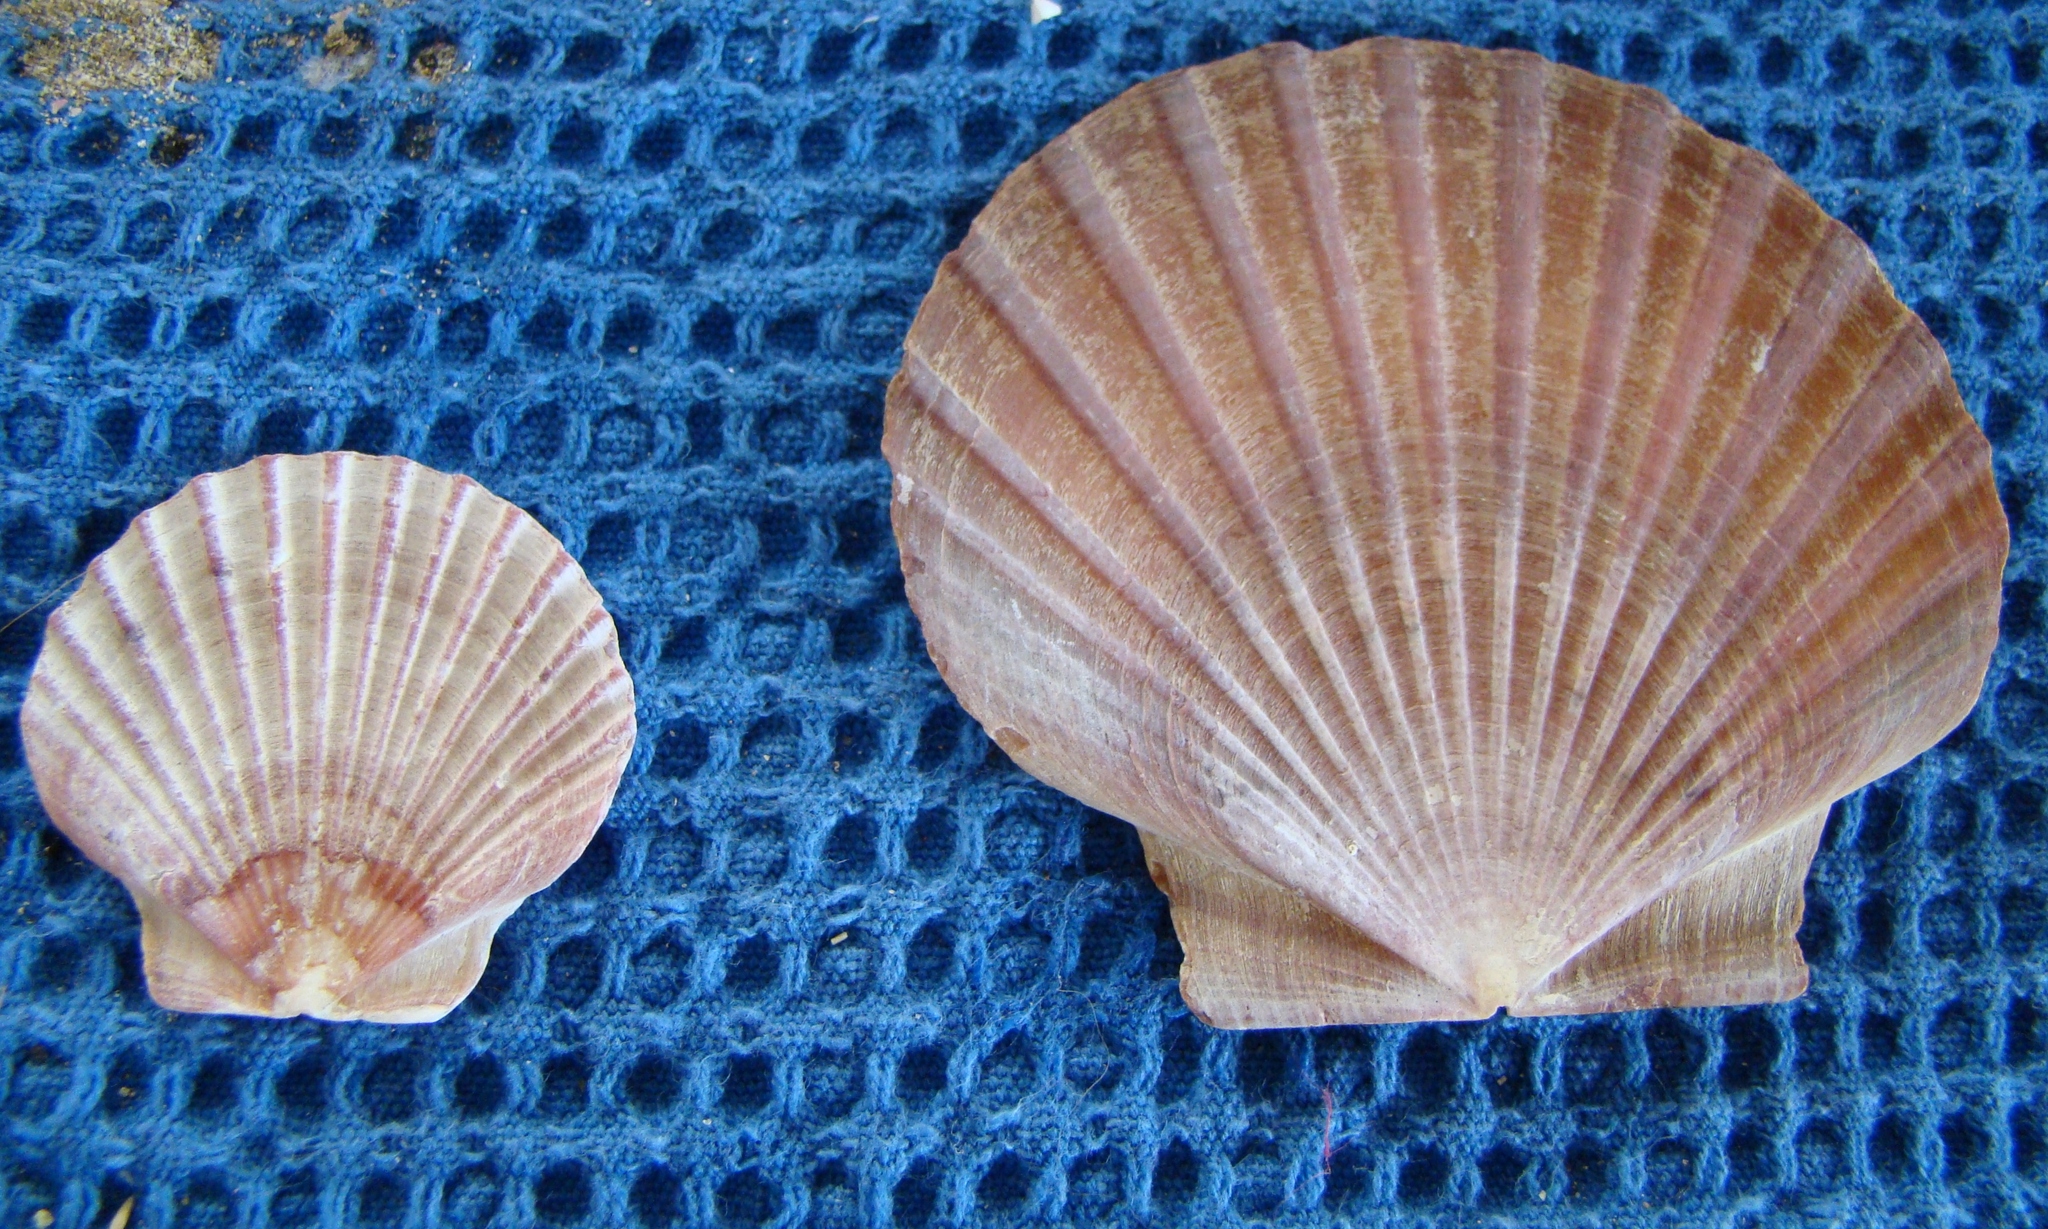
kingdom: Animalia
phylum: Mollusca
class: Bivalvia
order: Pectinida
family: Pectinidae
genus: Pecten
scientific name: Pecten novaezelandiae
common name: New zealand scallop
